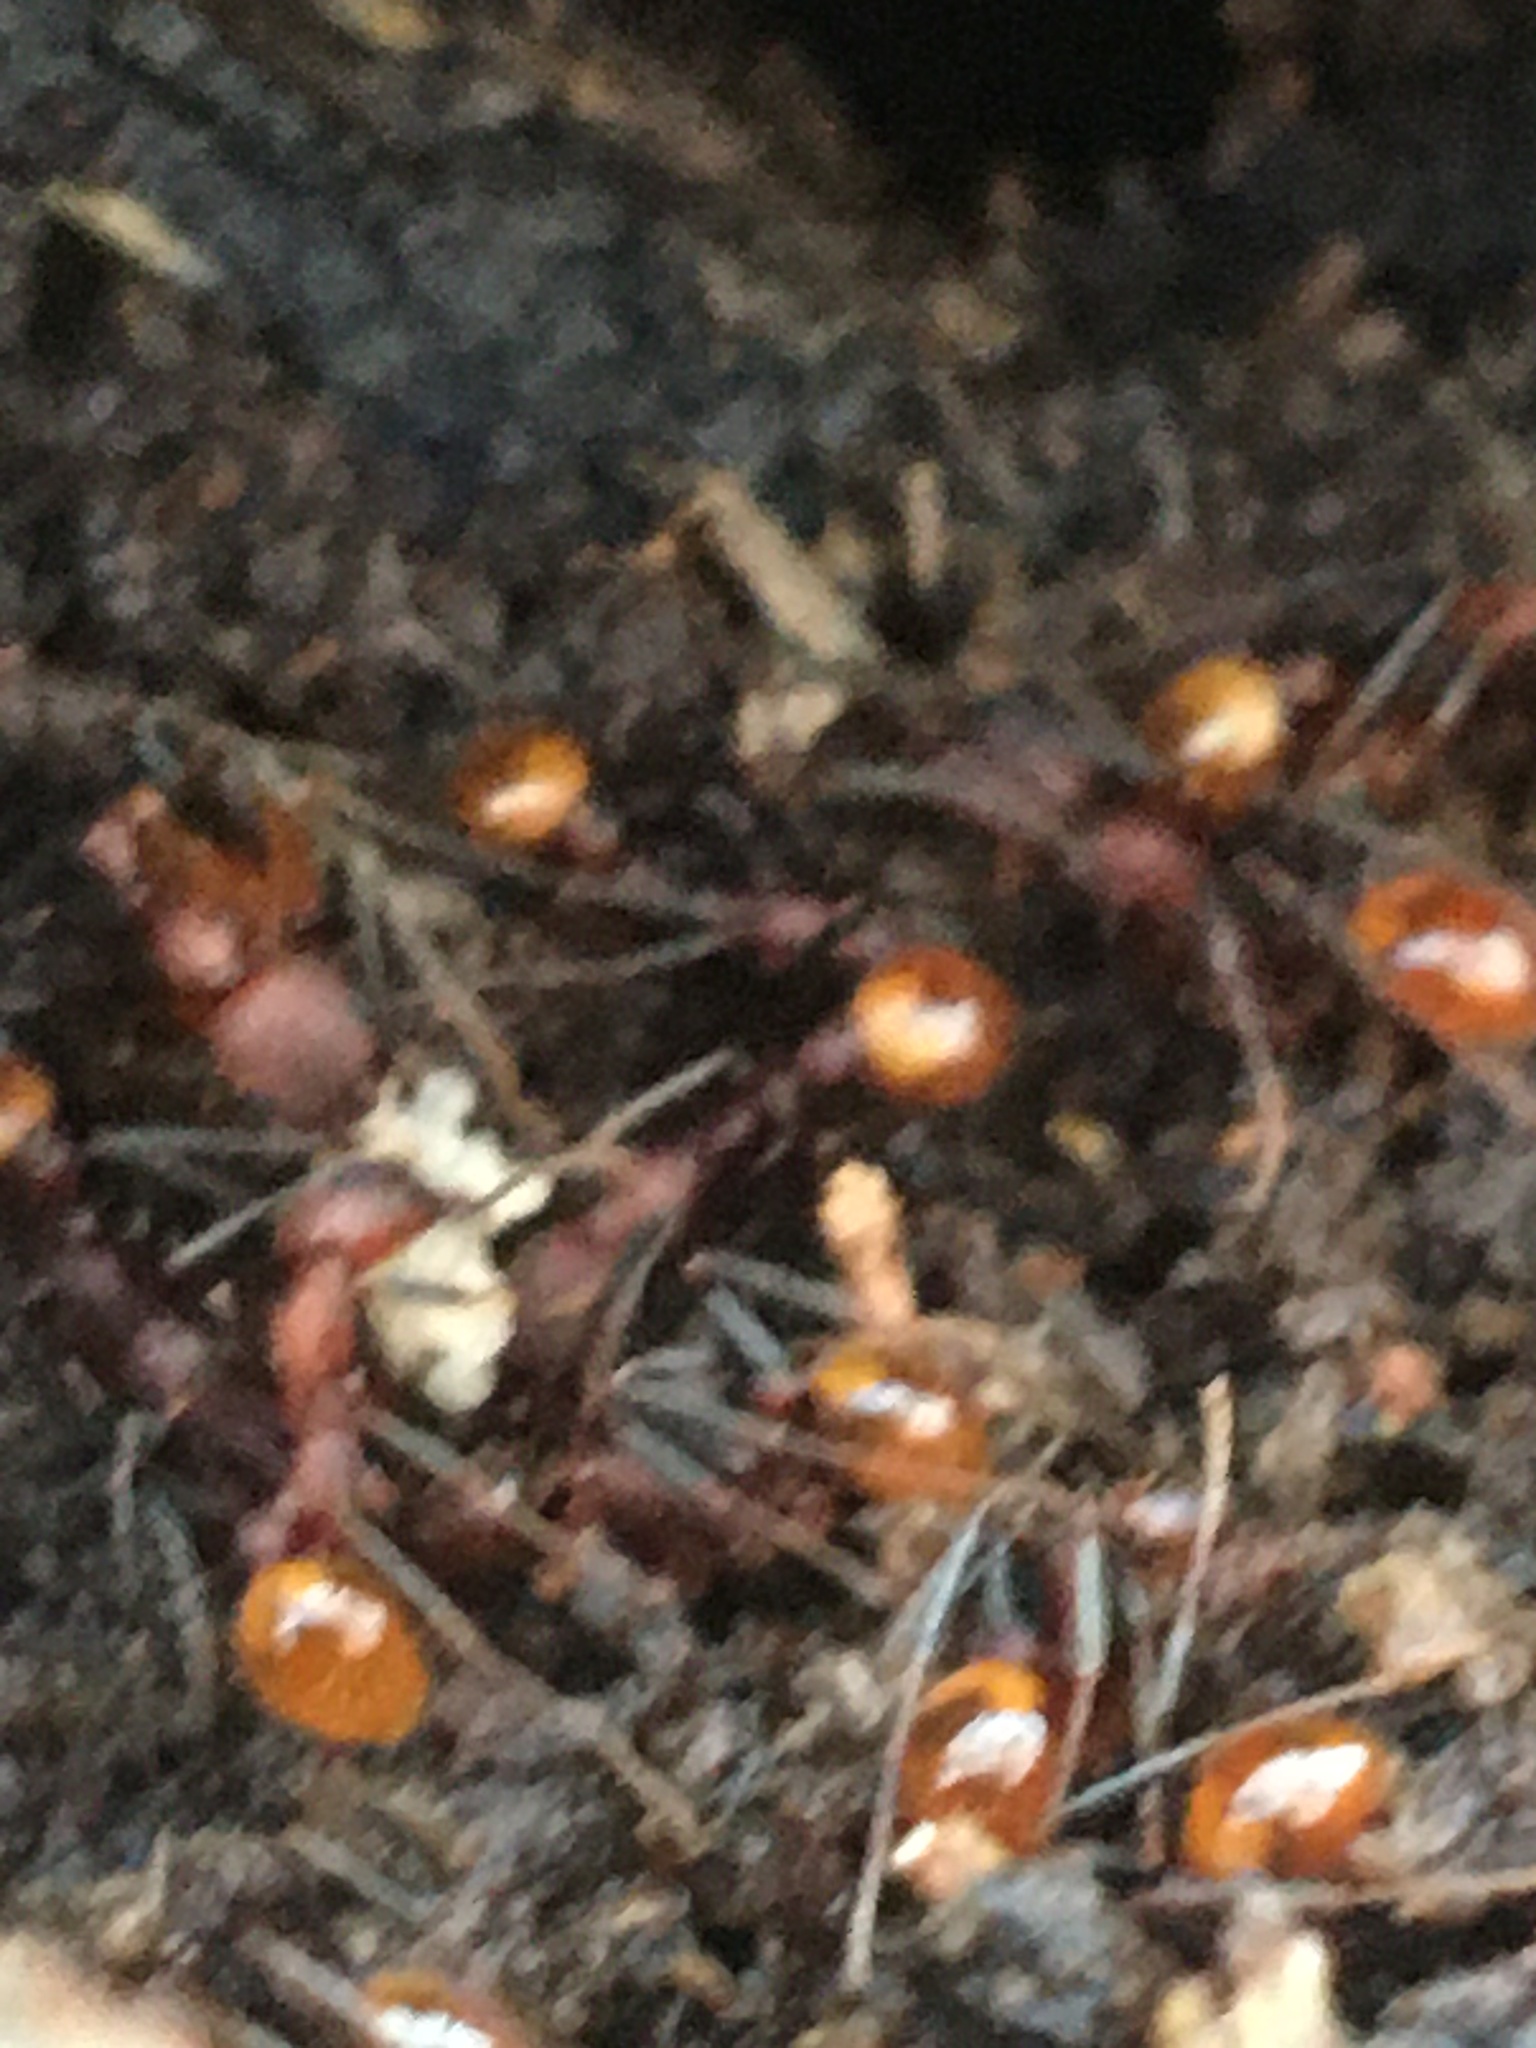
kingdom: Animalia
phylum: Arthropoda
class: Insecta
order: Hymenoptera
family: Formicidae
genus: Aphaenogaster
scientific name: Aphaenogaster lamellidens
